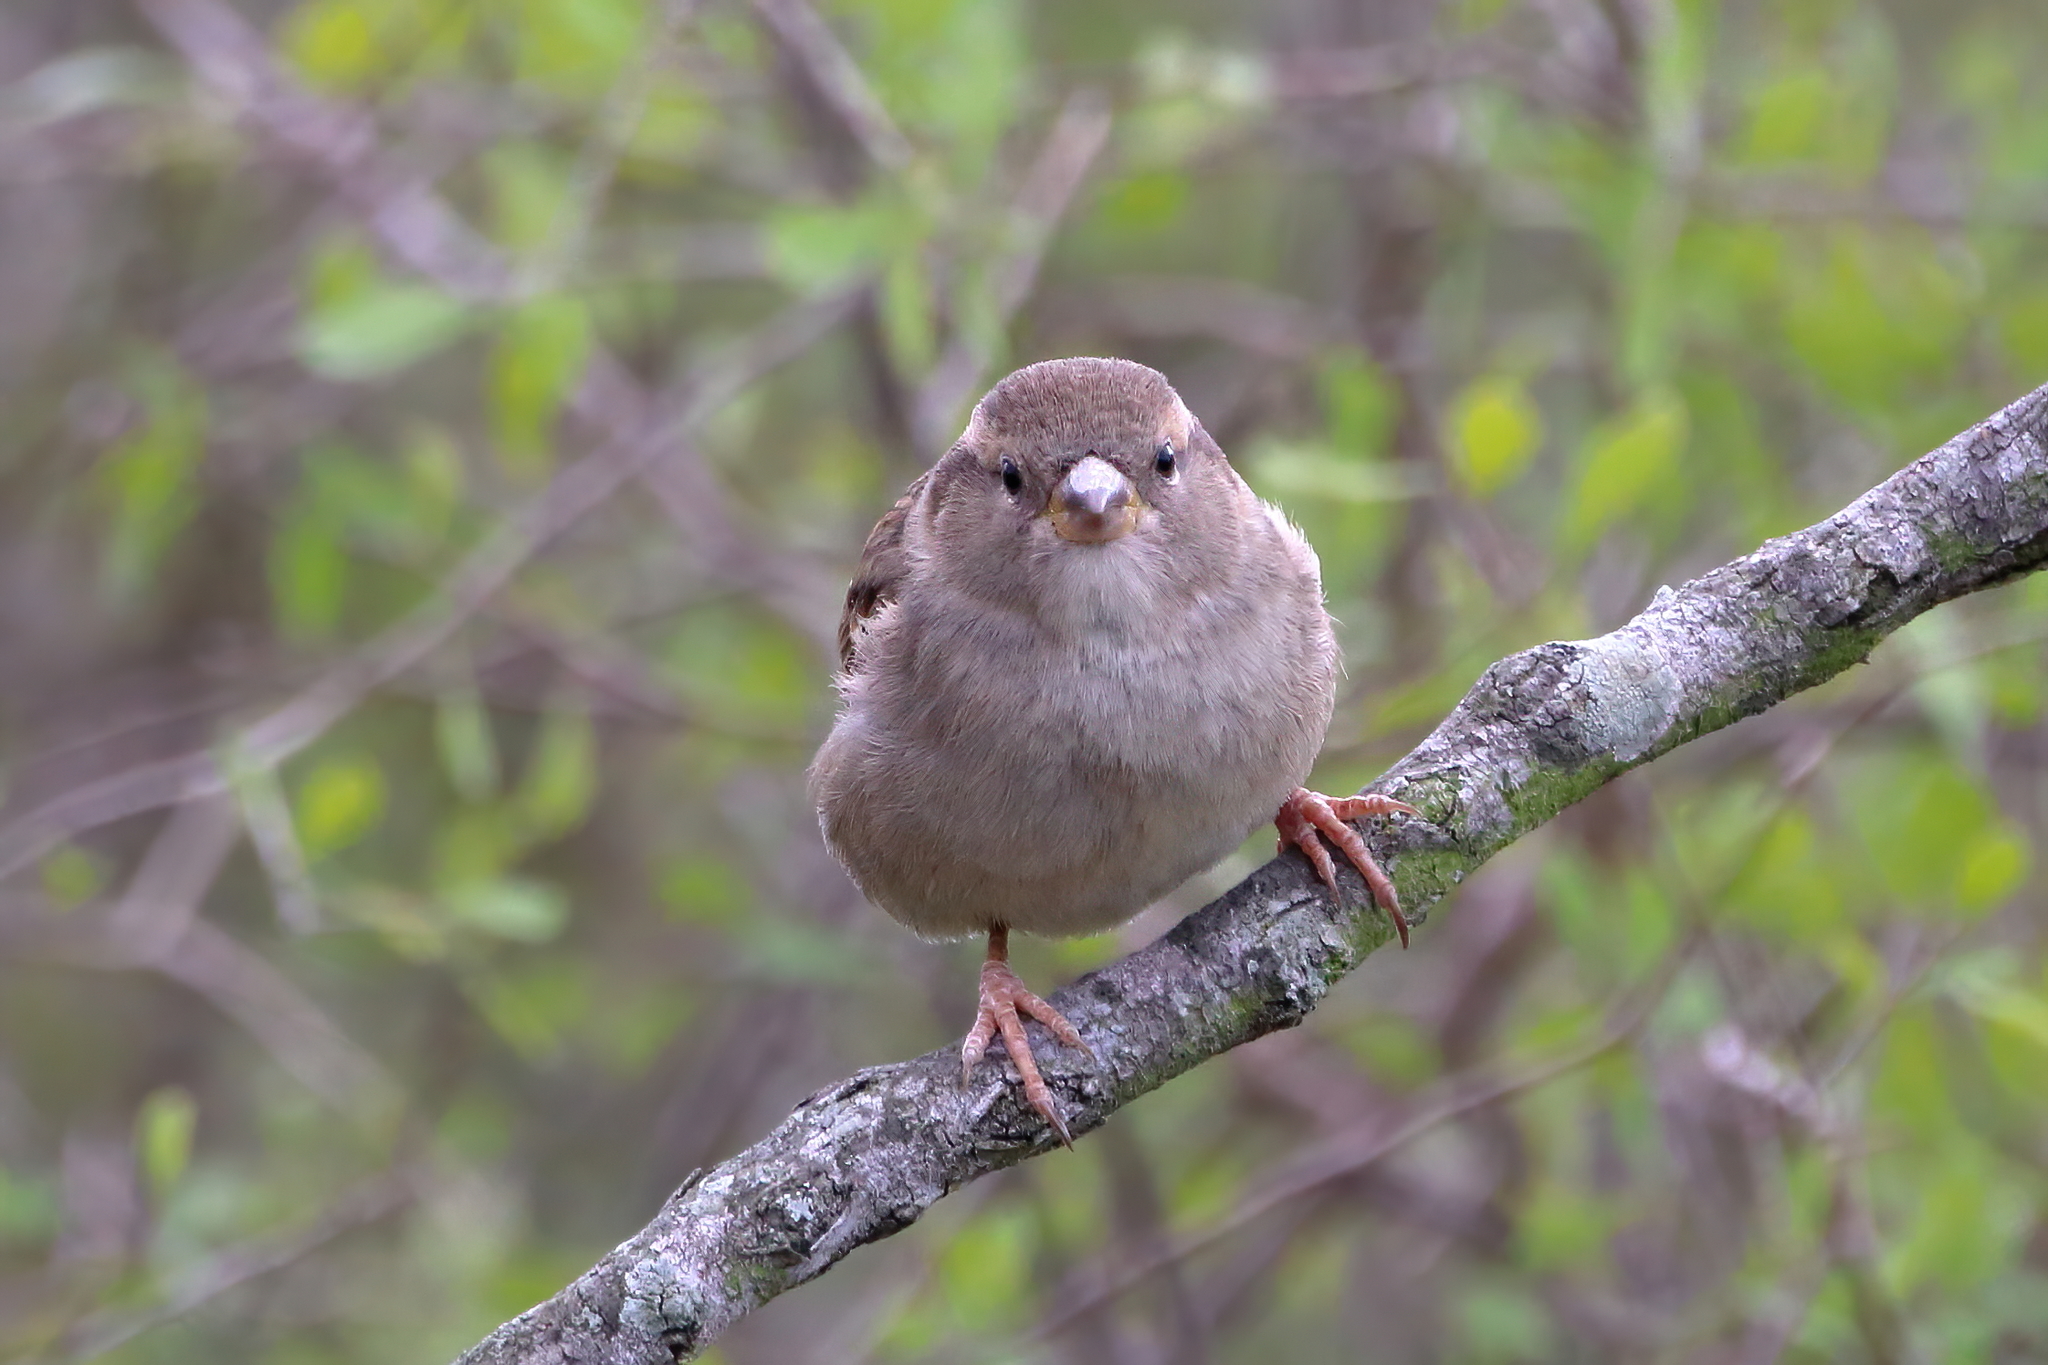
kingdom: Animalia
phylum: Chordata
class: Aves
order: Passeriformes
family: Passeridae
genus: Passer
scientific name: Passer domesticus
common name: House sparrow
